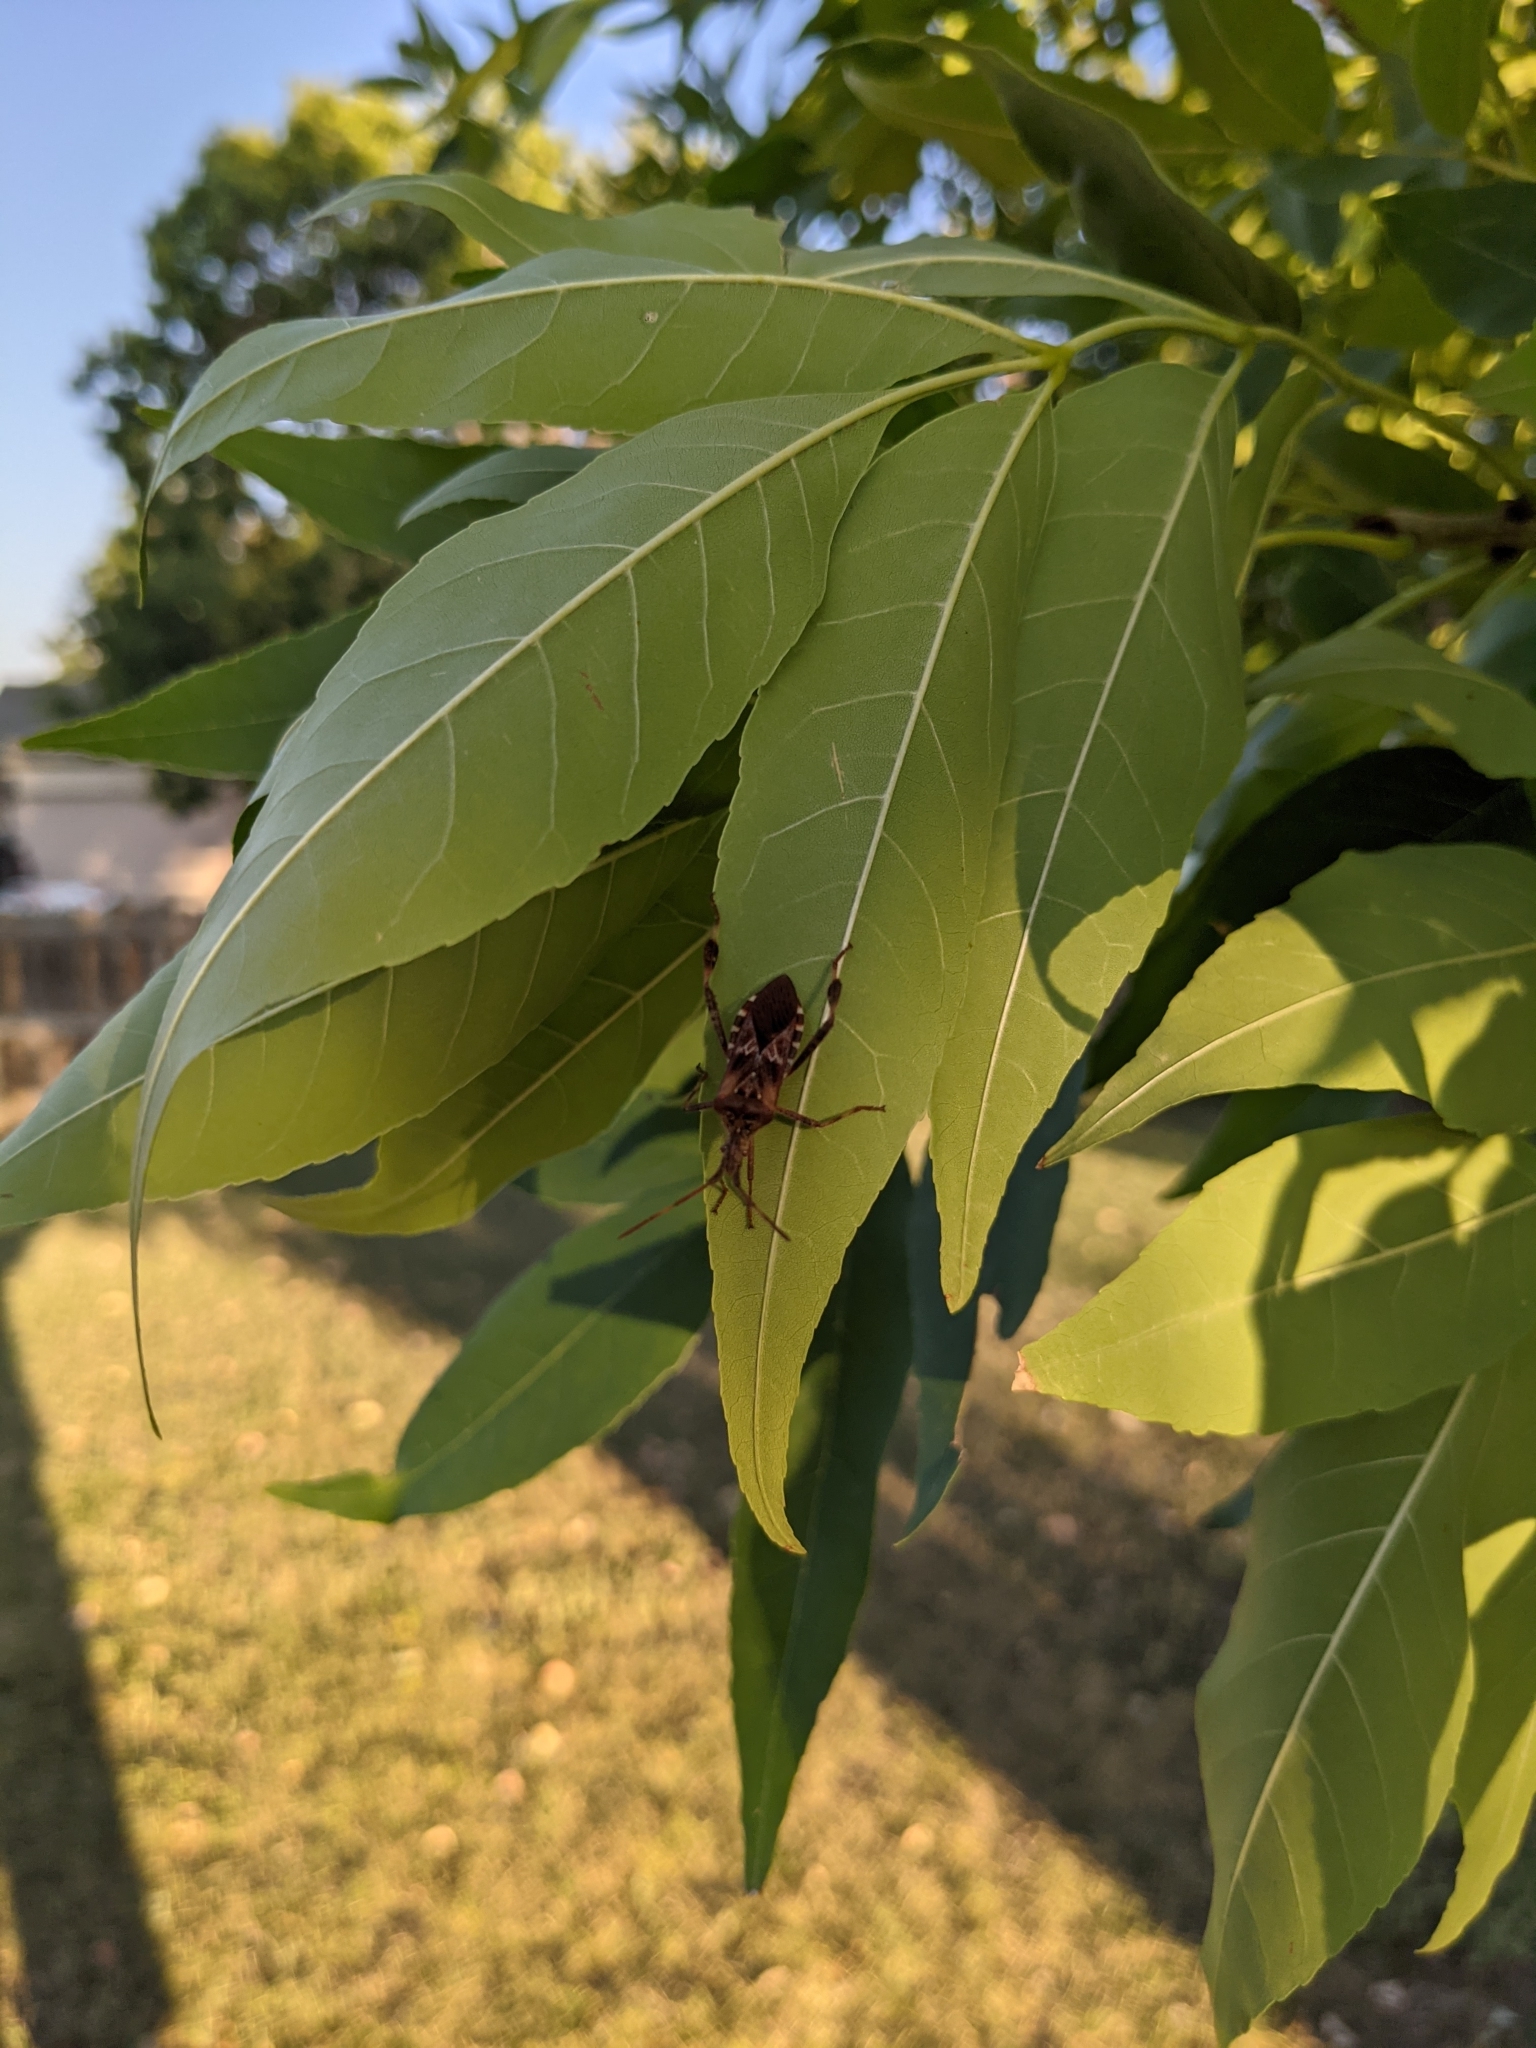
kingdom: Animalia
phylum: Arthropoda
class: Insecta
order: Hemiptera
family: Coreidae
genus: Leptoglossus
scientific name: Leptoglossus occidentalis
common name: Western conifer-seed bug
